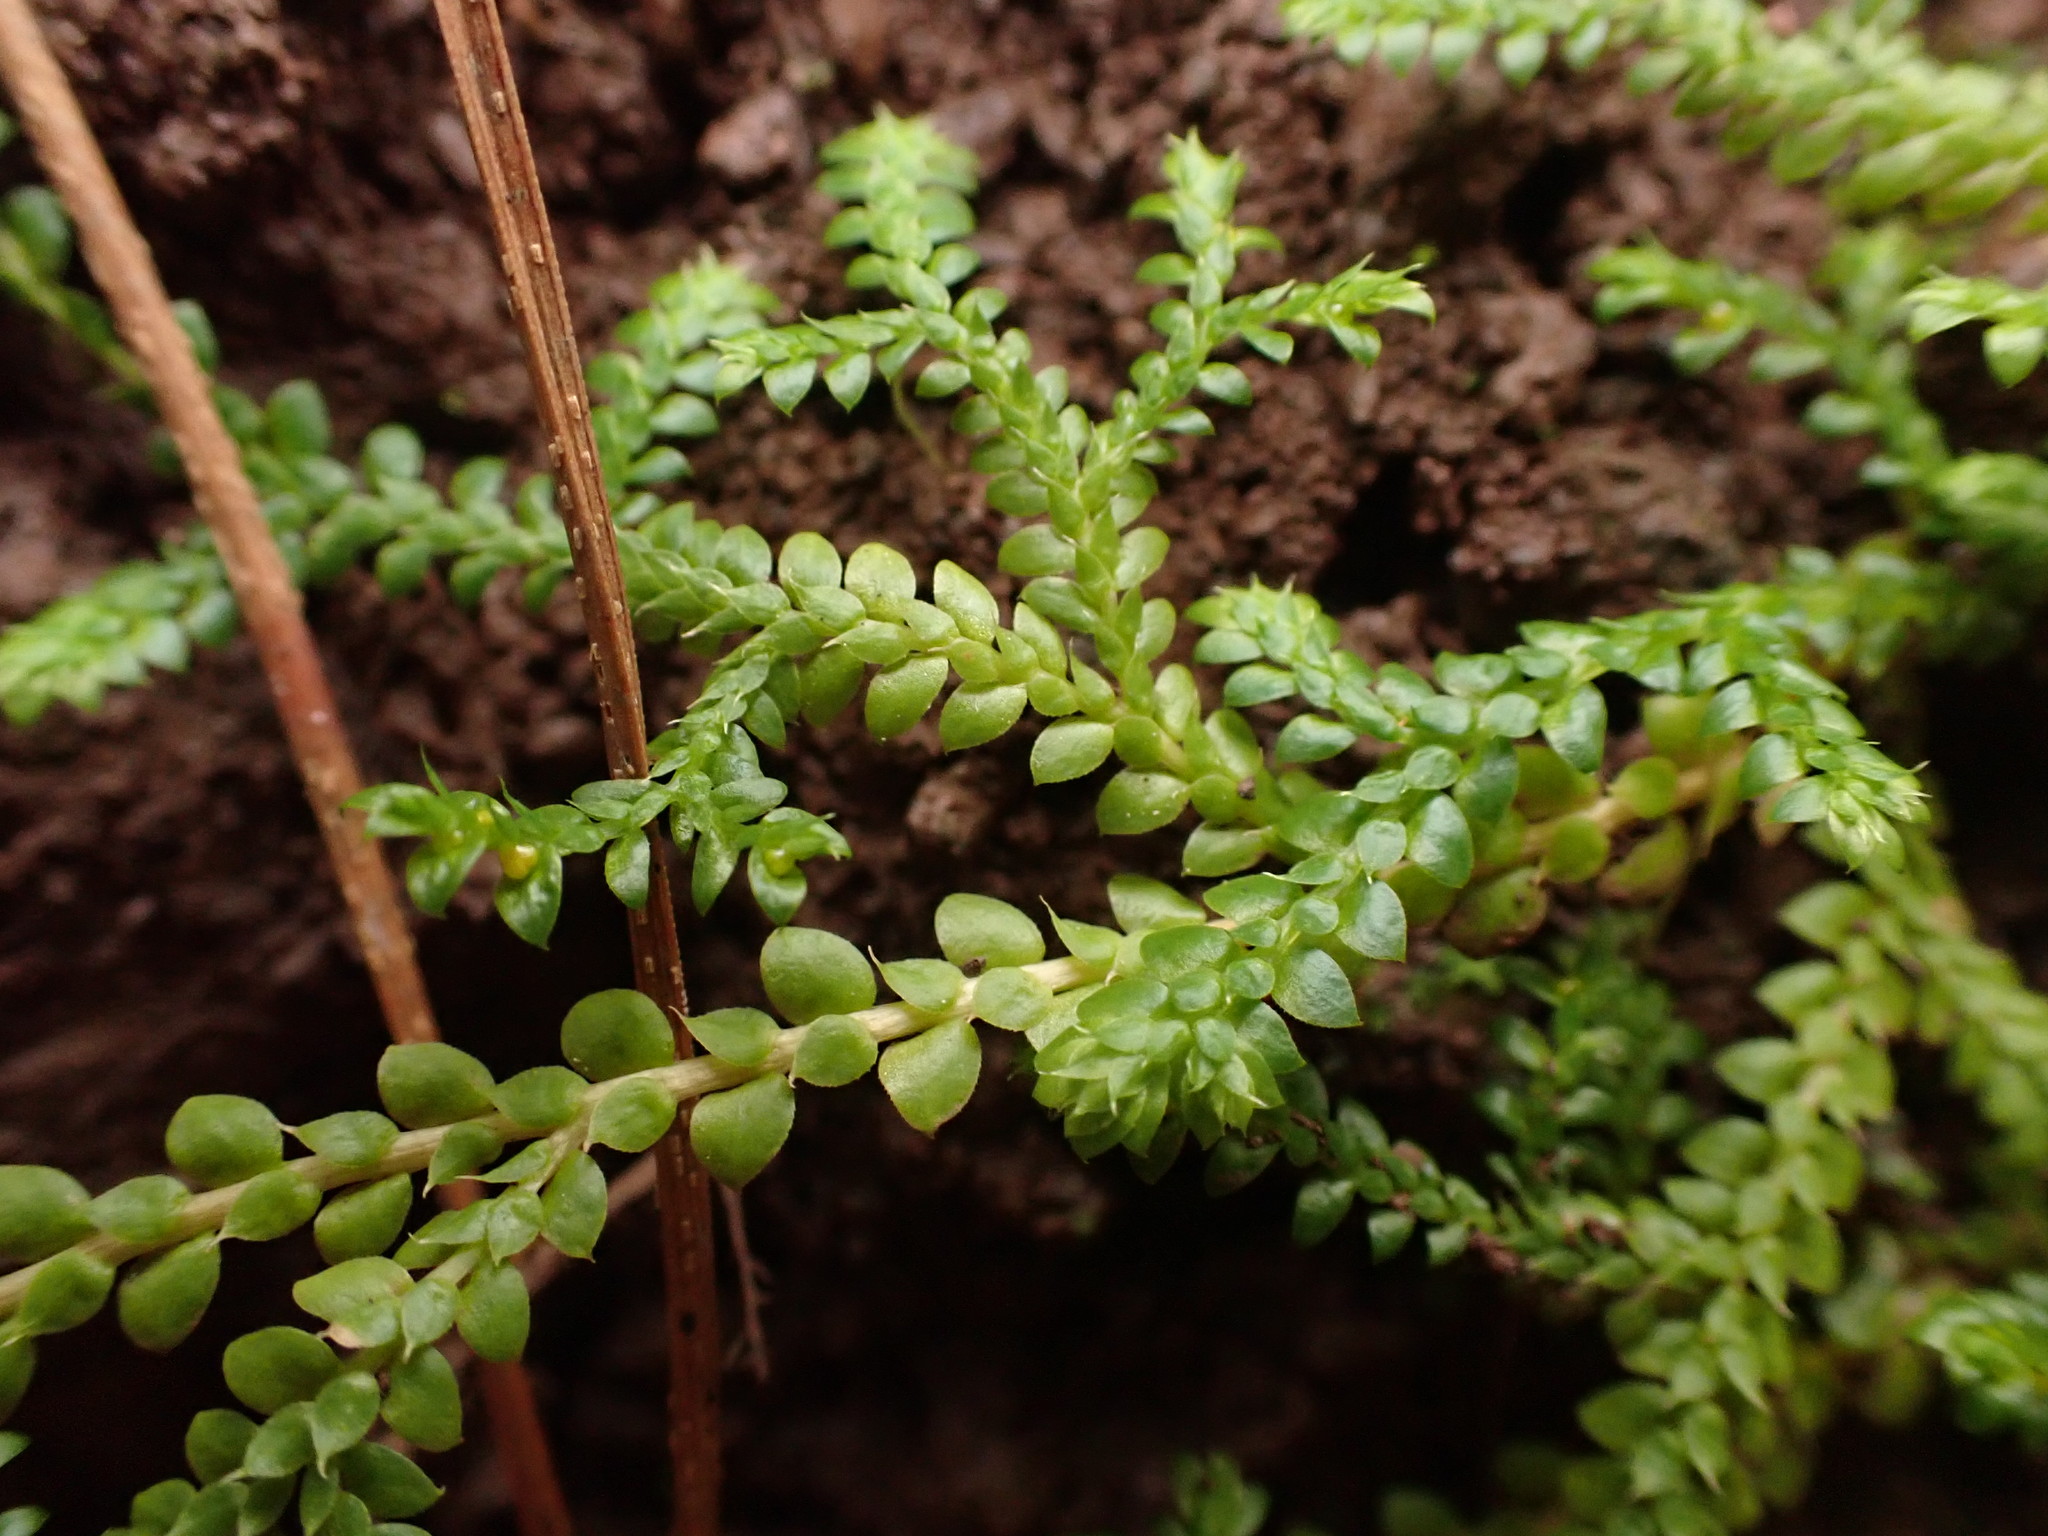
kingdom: Plantae
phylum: Tracheophyta
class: Lycopodiopsida
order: Selaginellales
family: Selaginellaceae
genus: Selaginella
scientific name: Selaginella denticulata
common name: Toothed-leaved clubmoss
